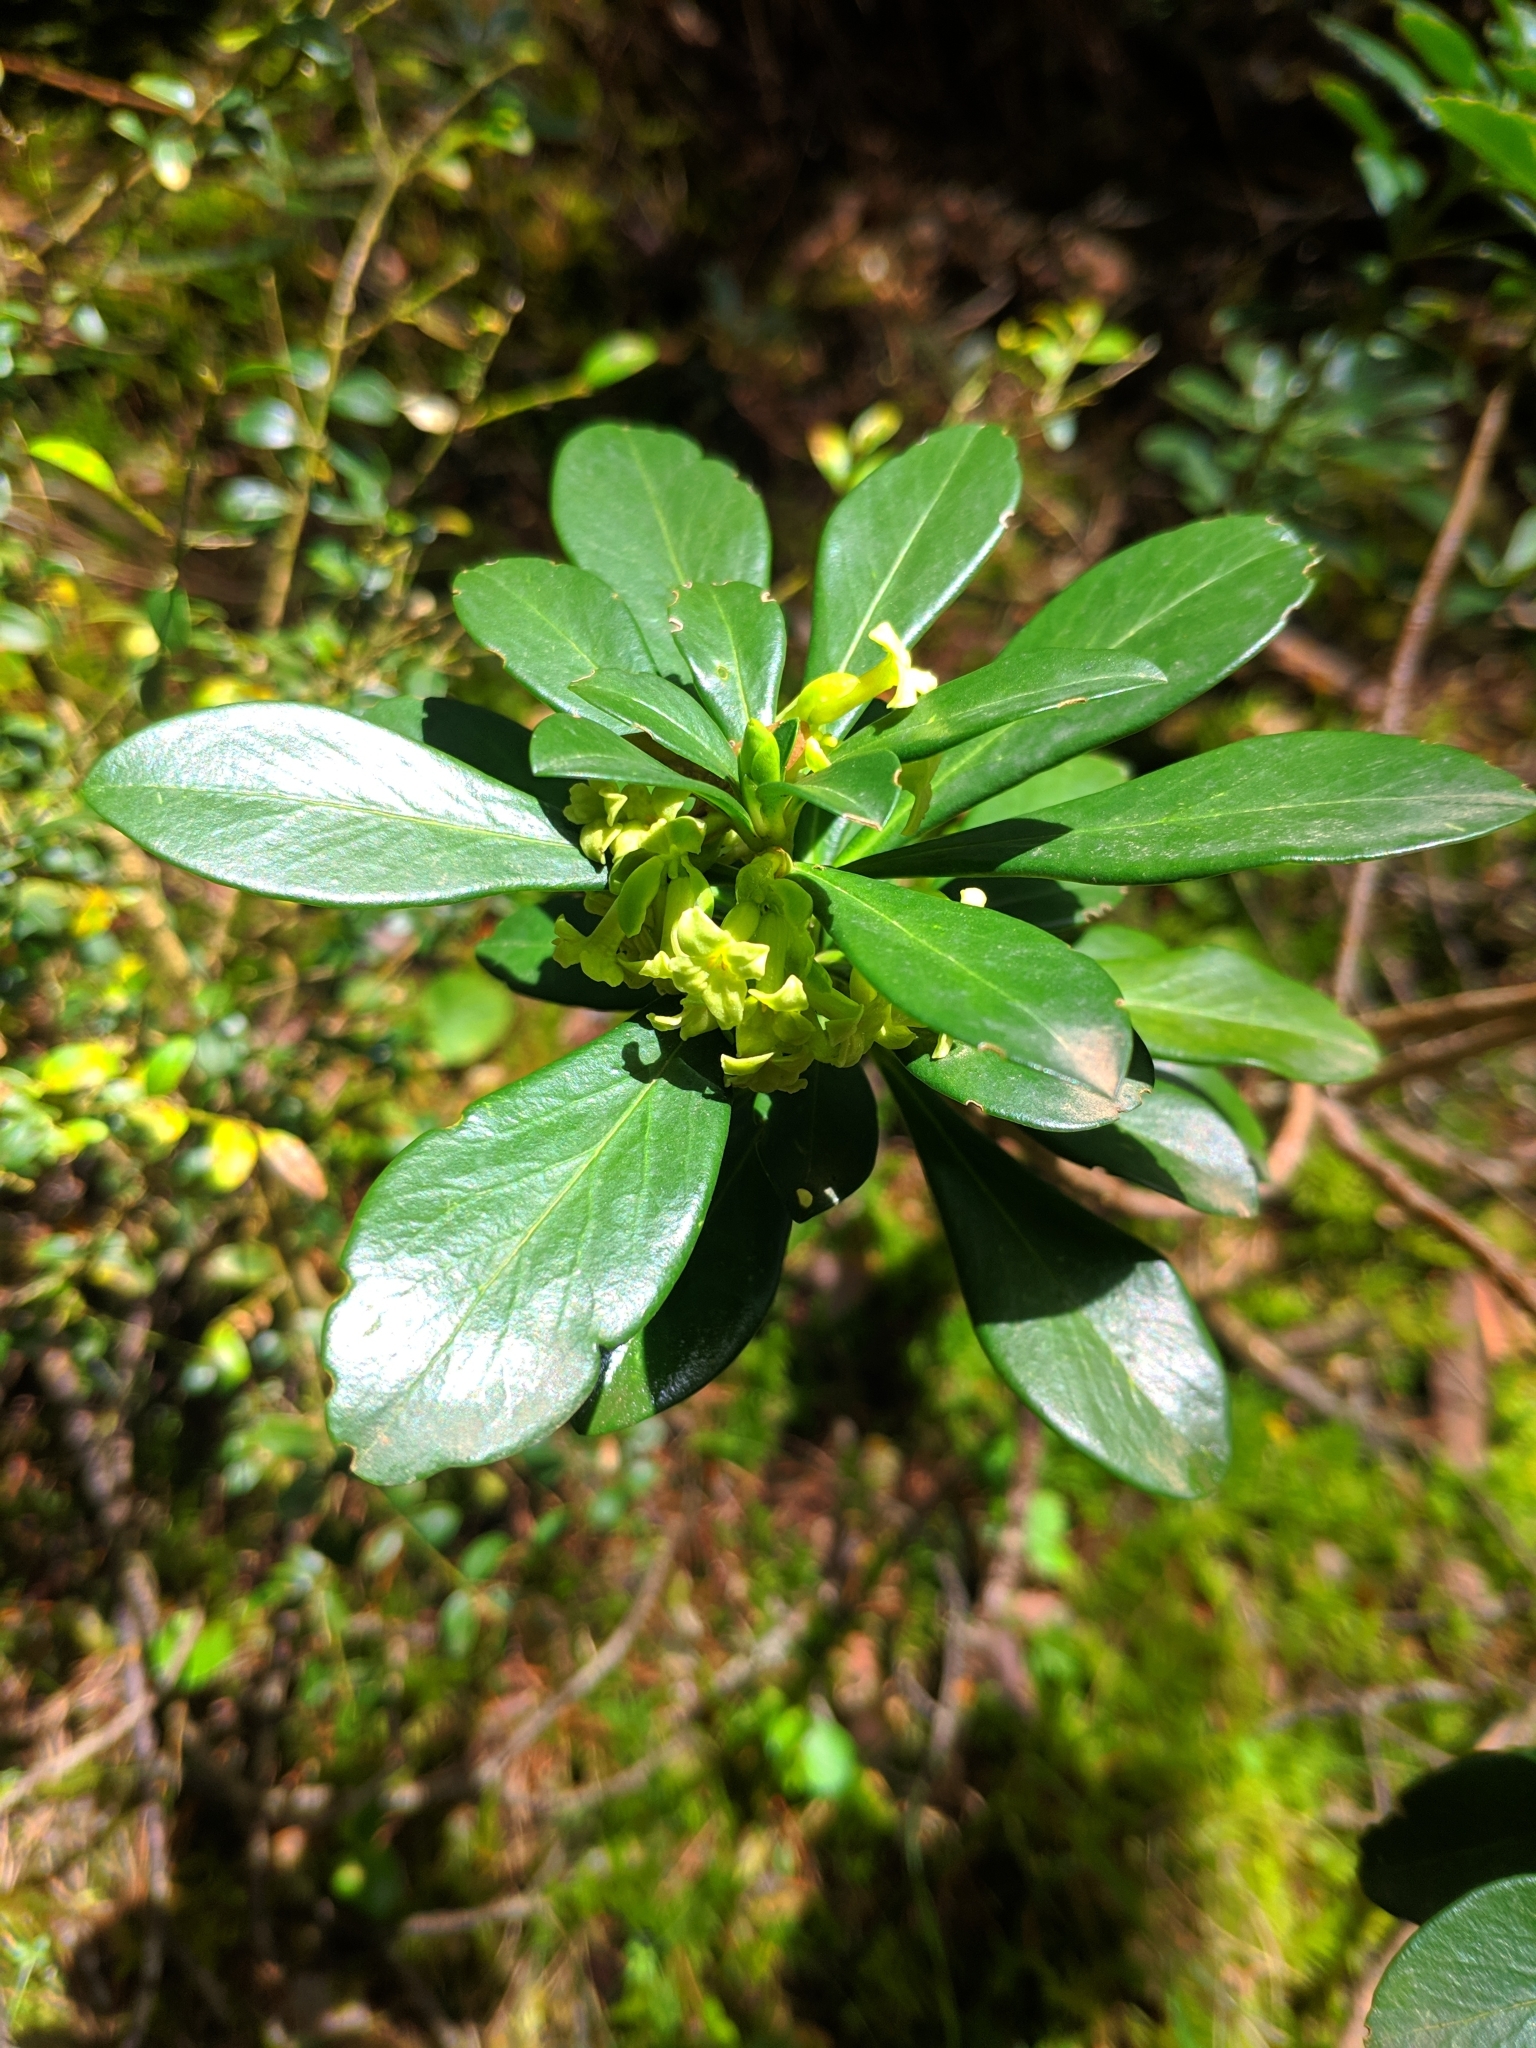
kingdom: Plantae
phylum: Tracheophyta
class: Magnoliopsida
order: Malvales
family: Thymelaeaceae
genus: Daphne
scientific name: Daphne laureola
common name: Spurge-laurel
